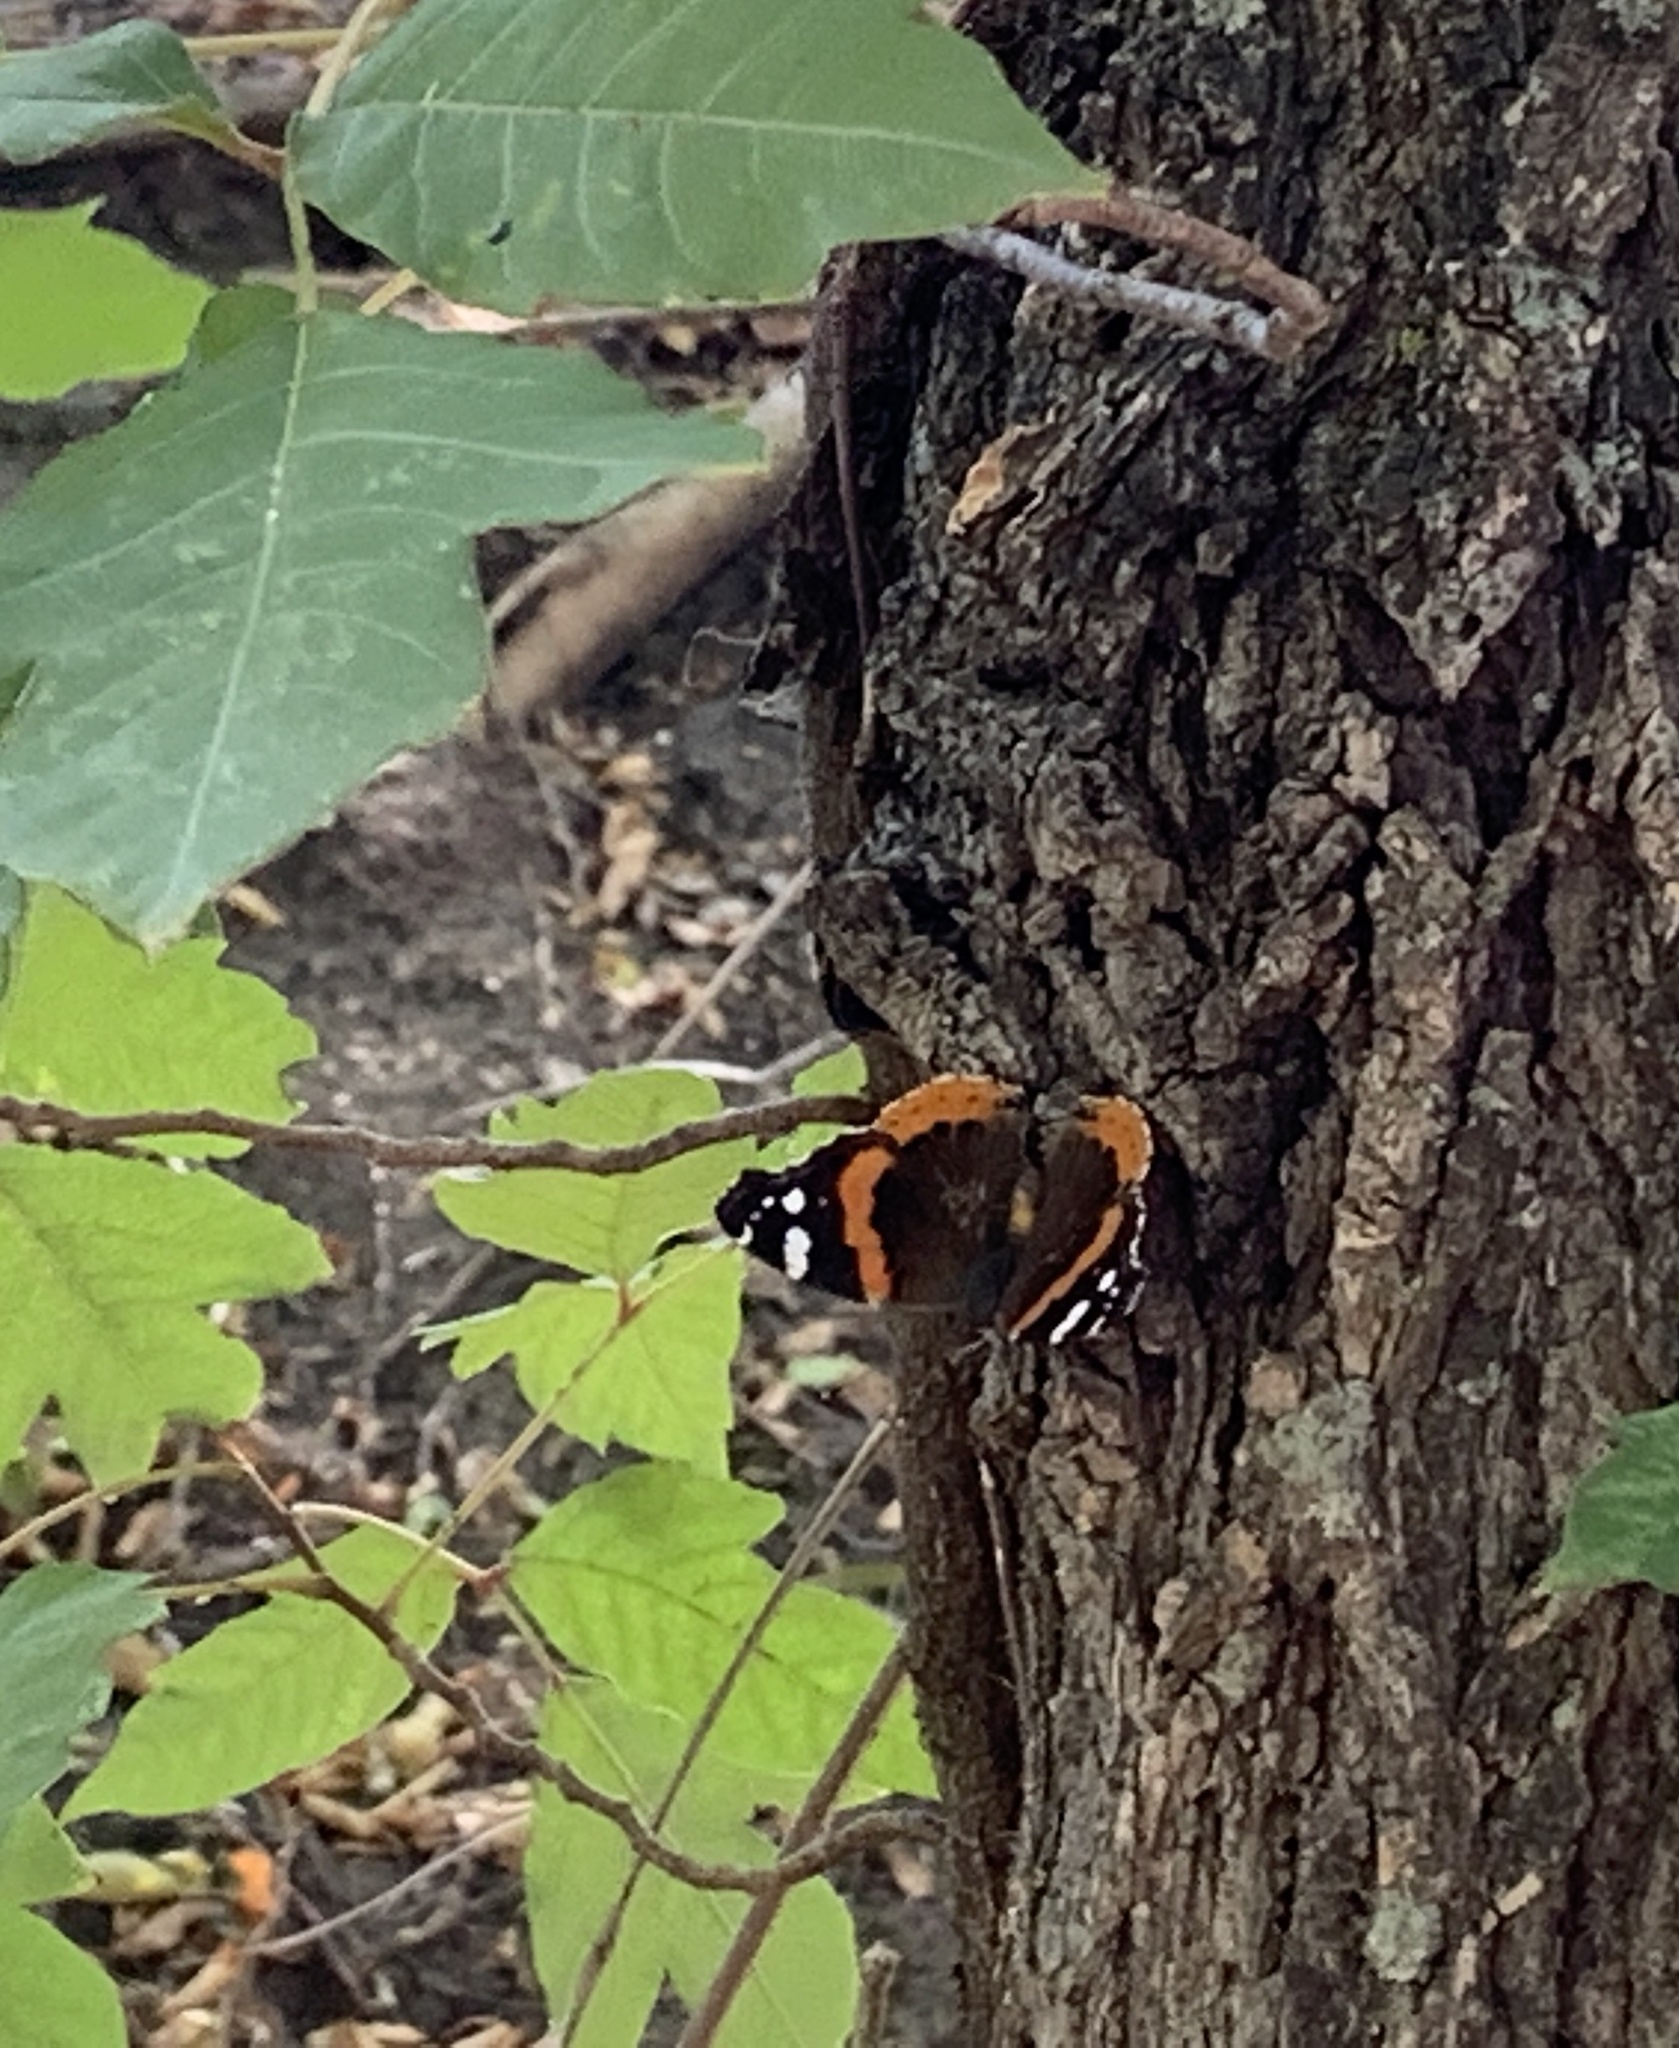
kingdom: Animalia
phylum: Arthropoda
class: Insecta
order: Lepidoptera
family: Nymphalidae
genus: Vanessa
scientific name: Vanessa atalanta
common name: Red admiral
